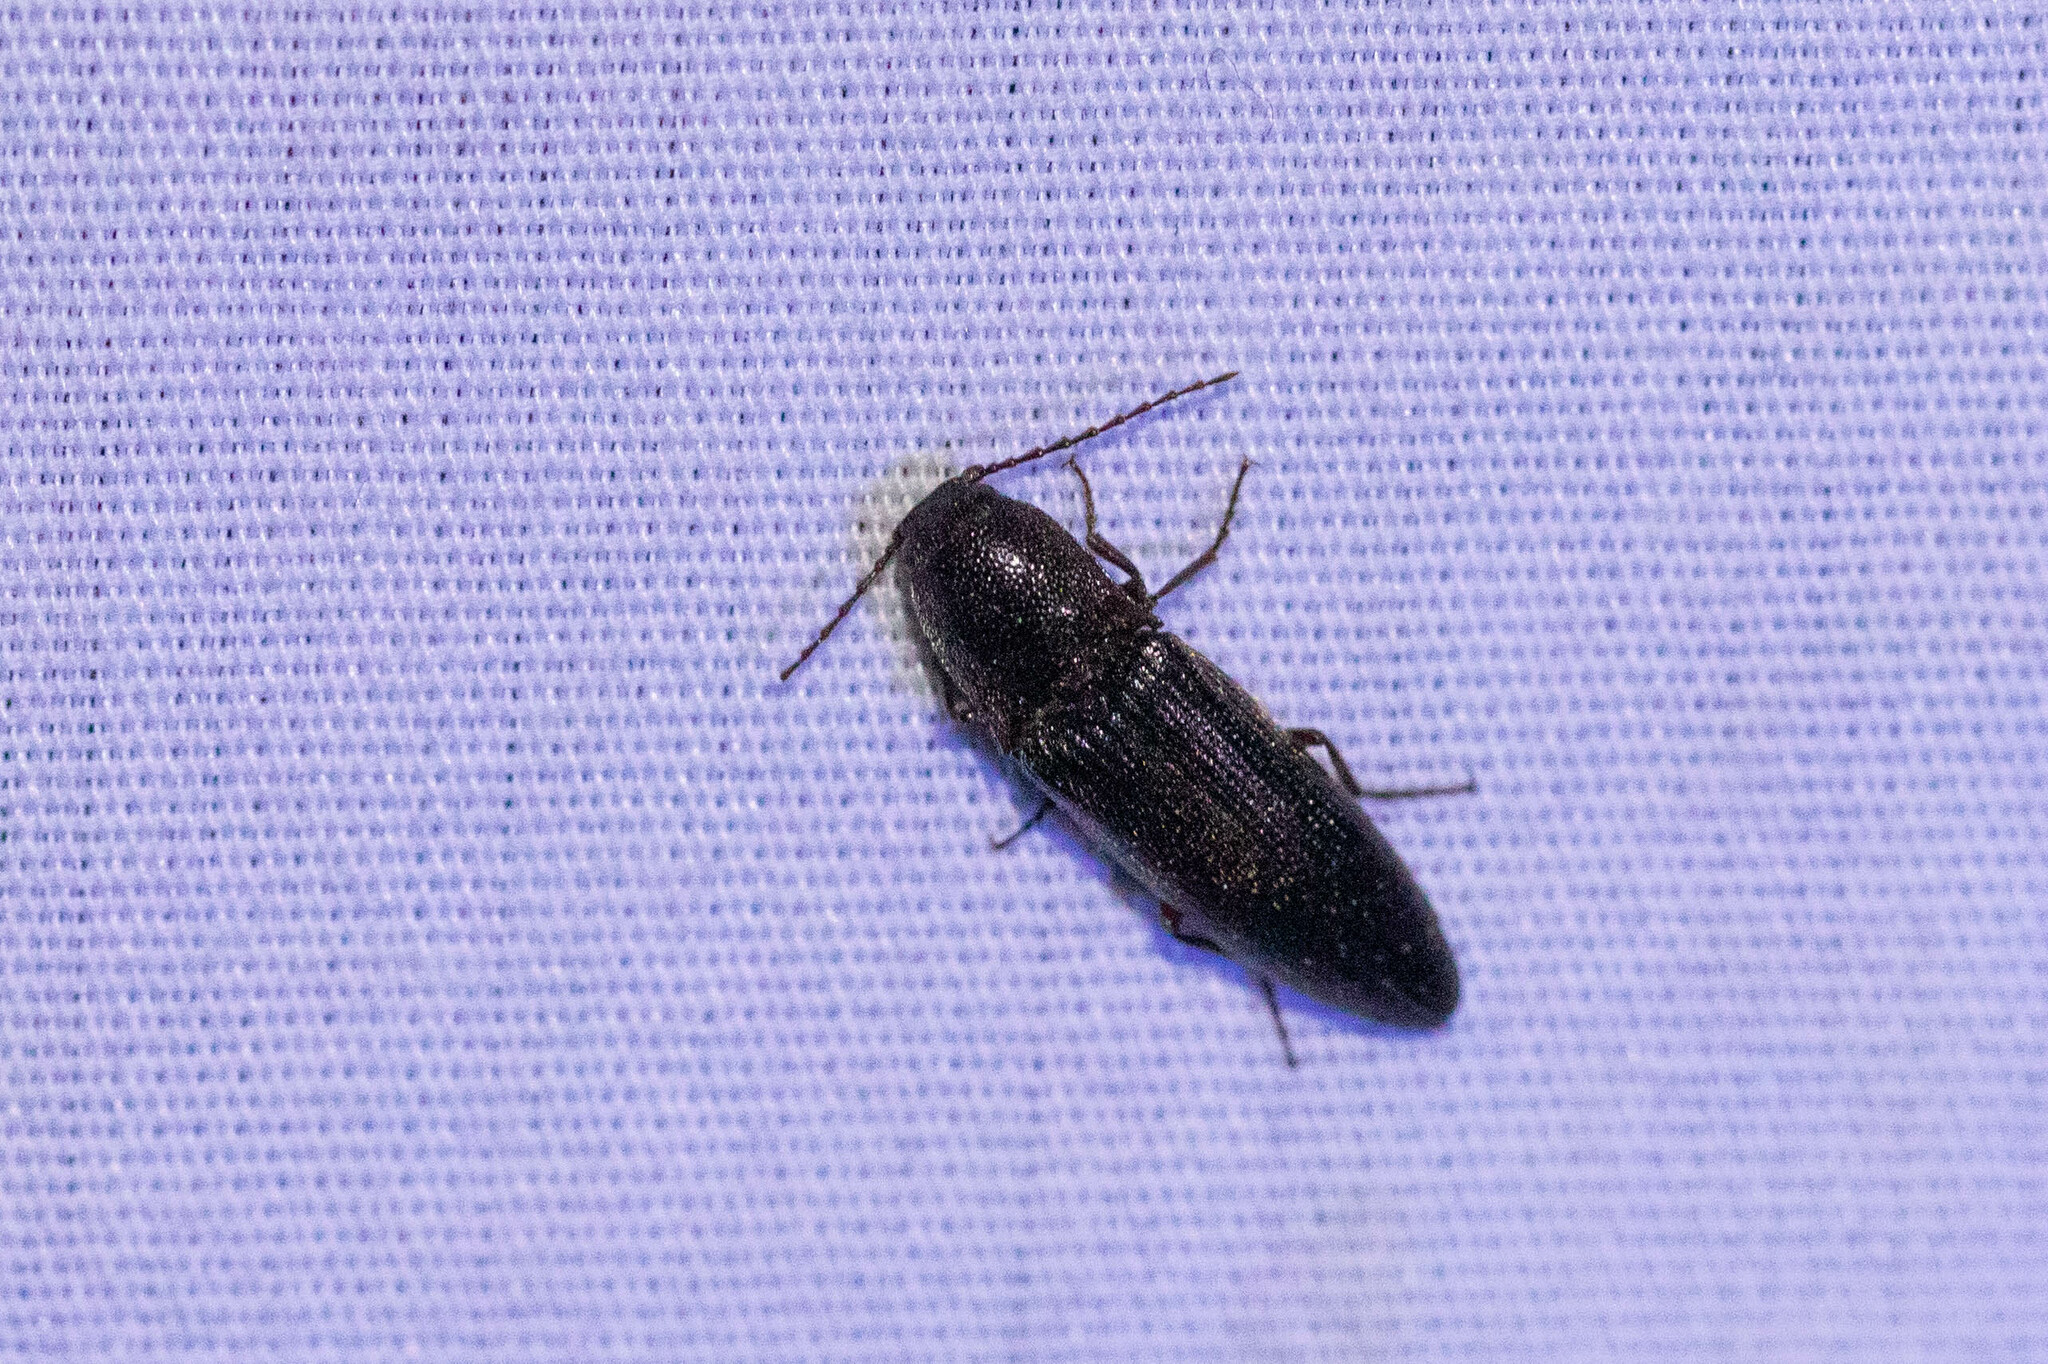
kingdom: Animalia
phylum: Arthropoda
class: Insecta
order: Coleoptera
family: Elateridae
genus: Melanotus
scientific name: Melanotus longulus
